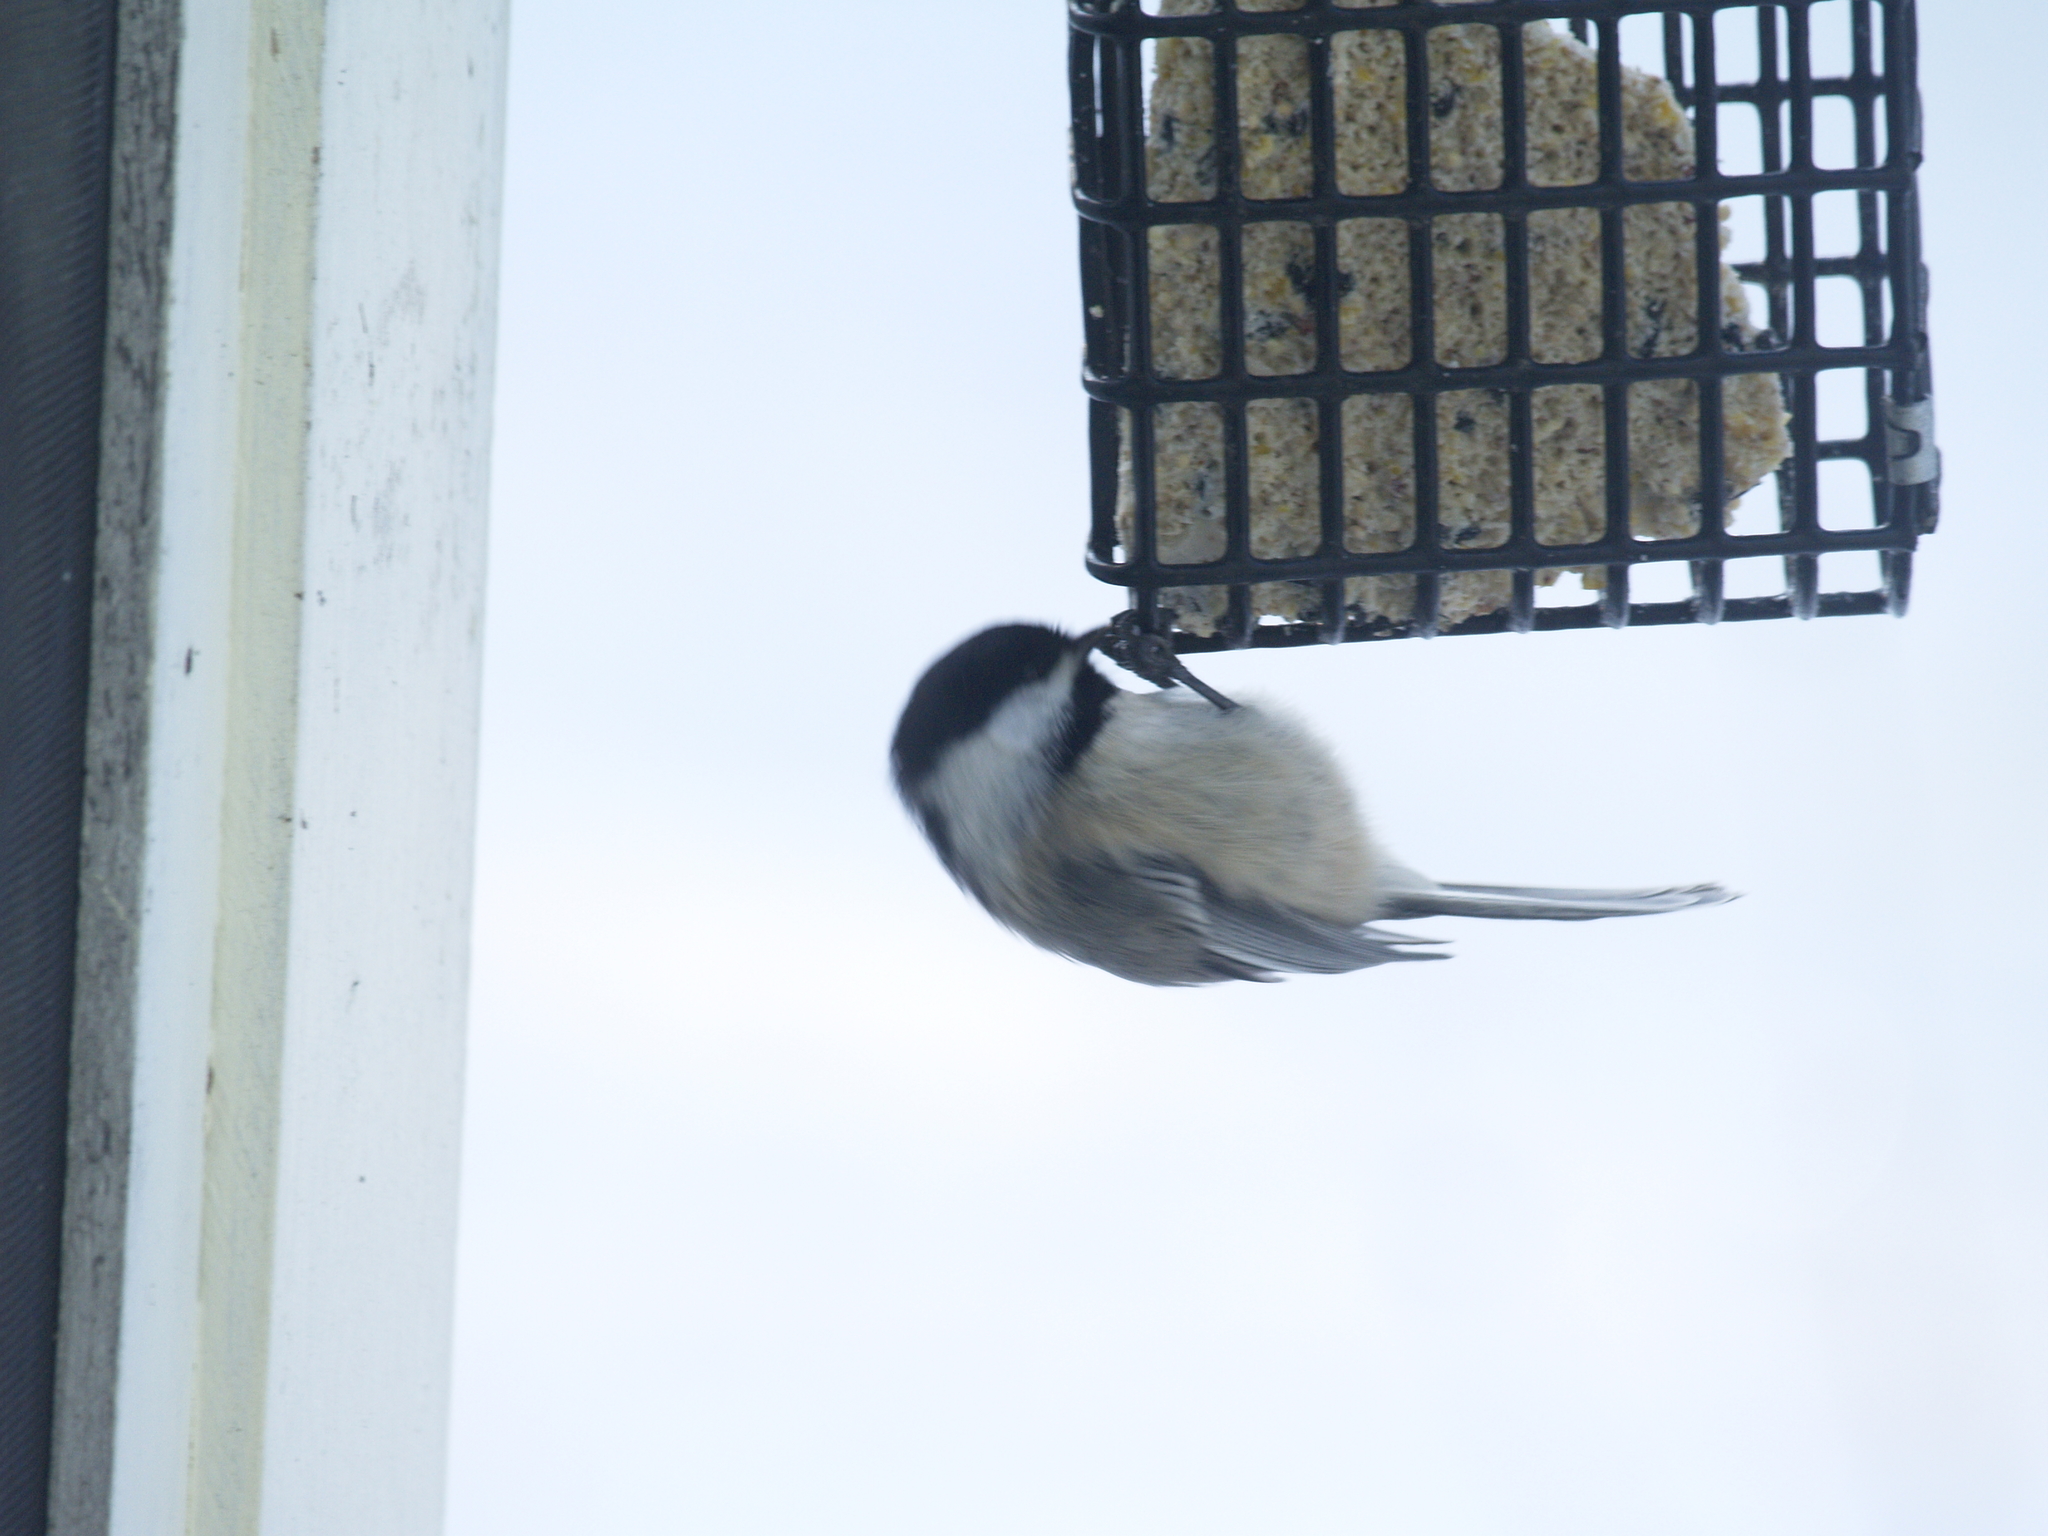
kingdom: Animalia
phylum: Chordata
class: Aves
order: Passeriformes
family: Paridae
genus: Poecile
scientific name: Poecile atricapillus
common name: Black-capped chickadee
